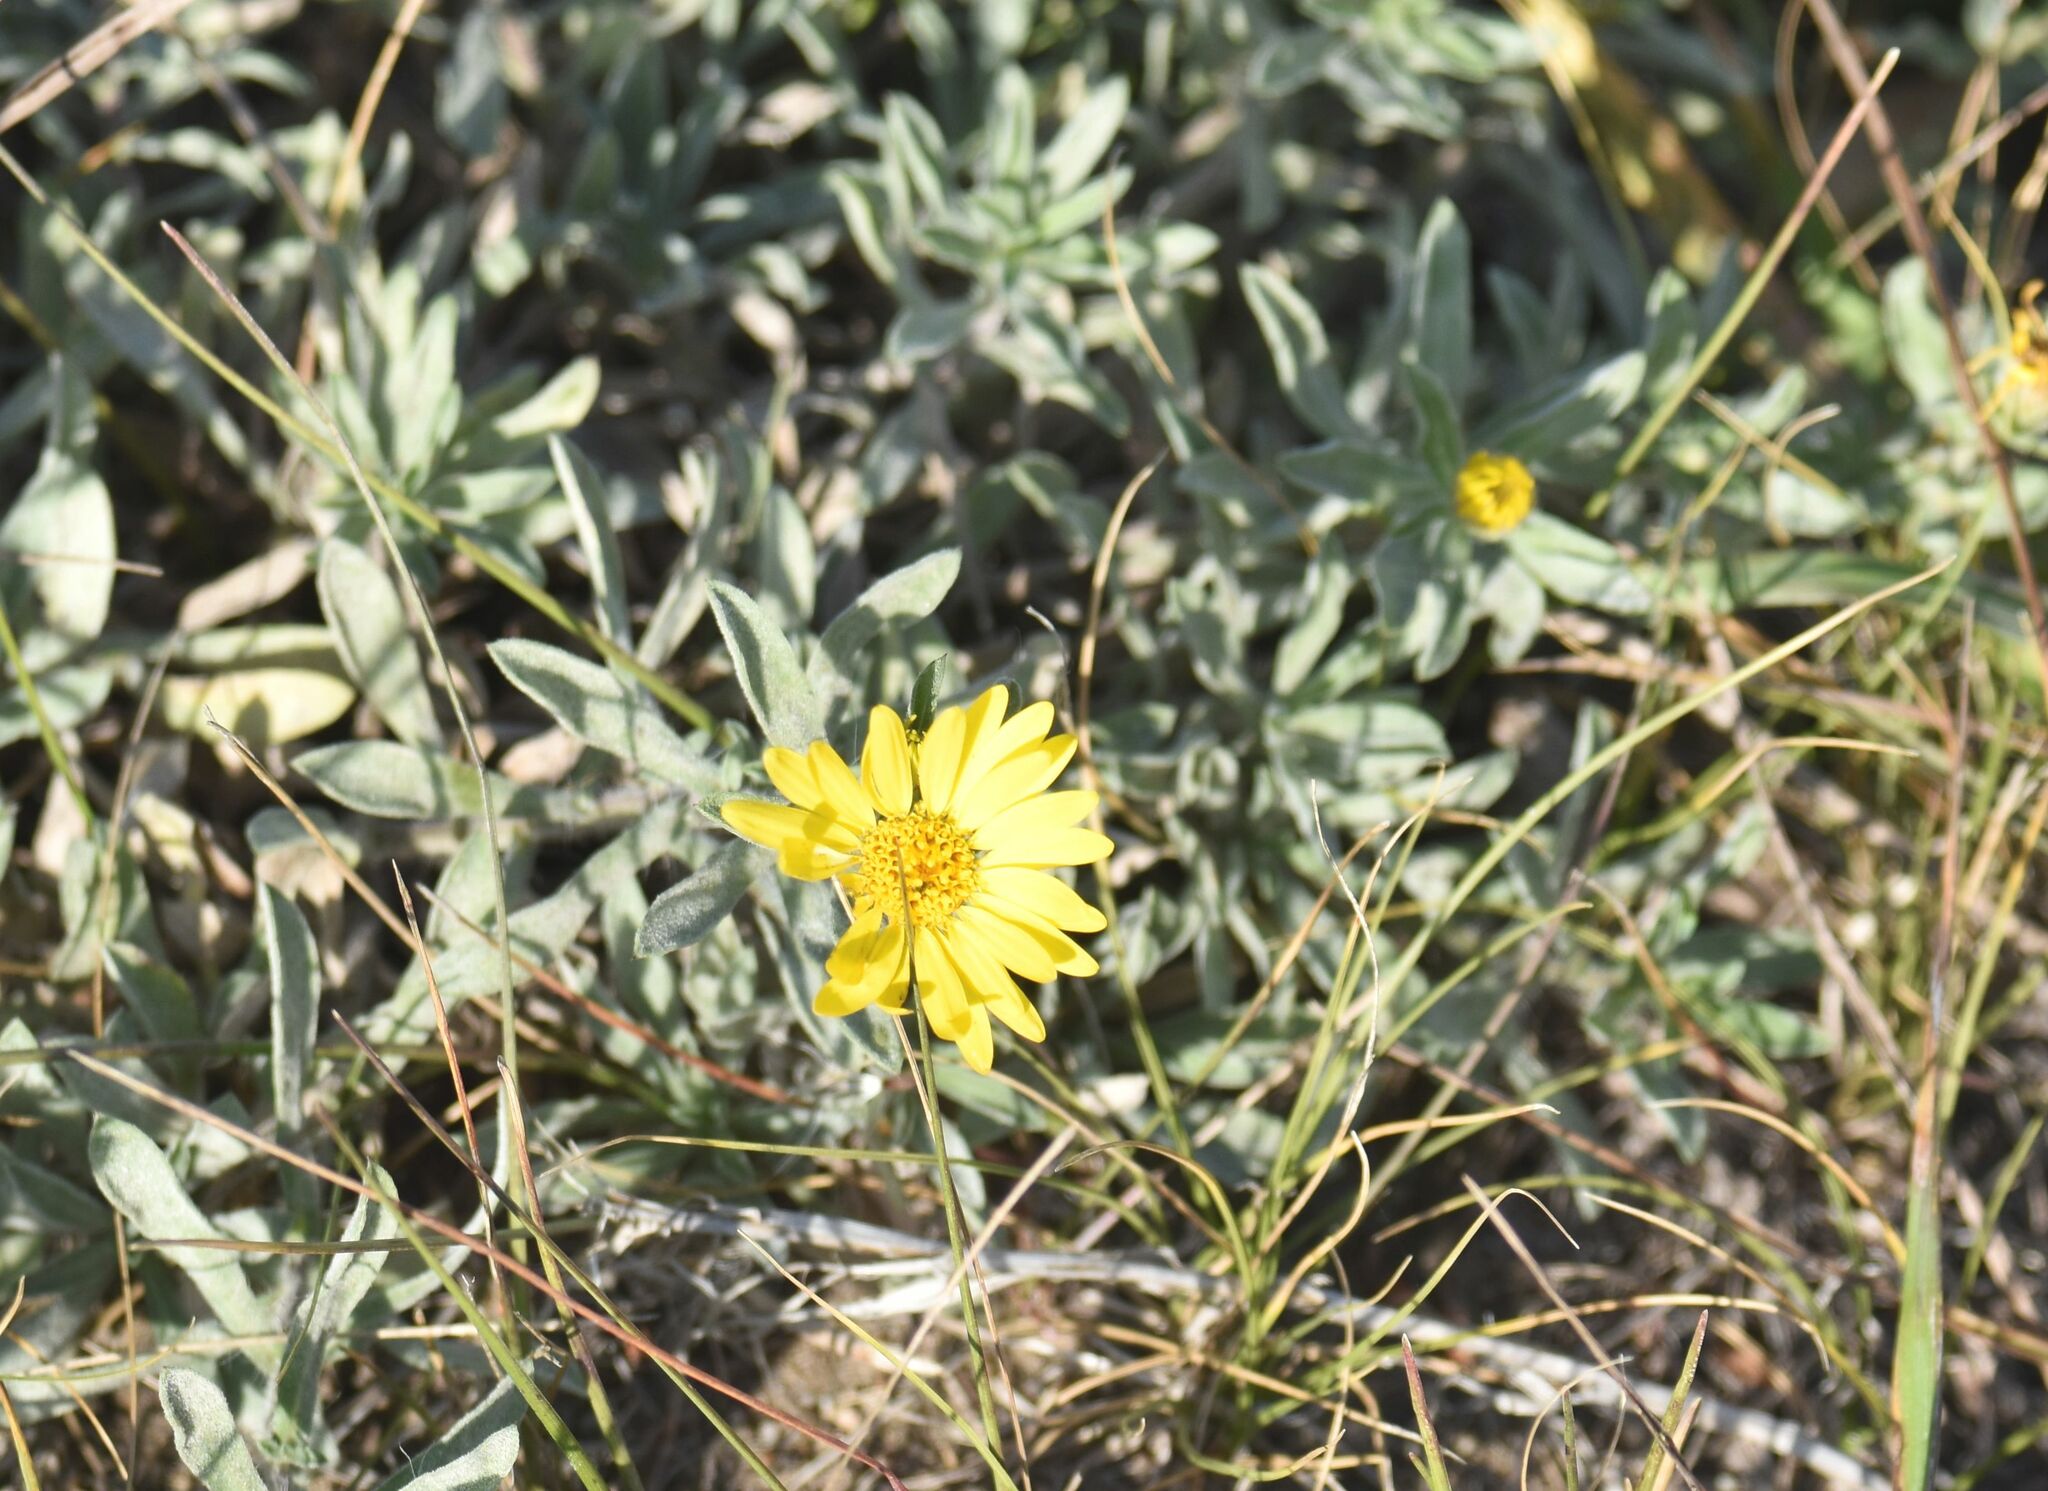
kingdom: Plantae
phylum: Tracheophyta
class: Magnoliopsida
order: Asterales
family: Asteraceae
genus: Heterotheca
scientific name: Heterotheca villosa
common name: Hairy false goldenaster
